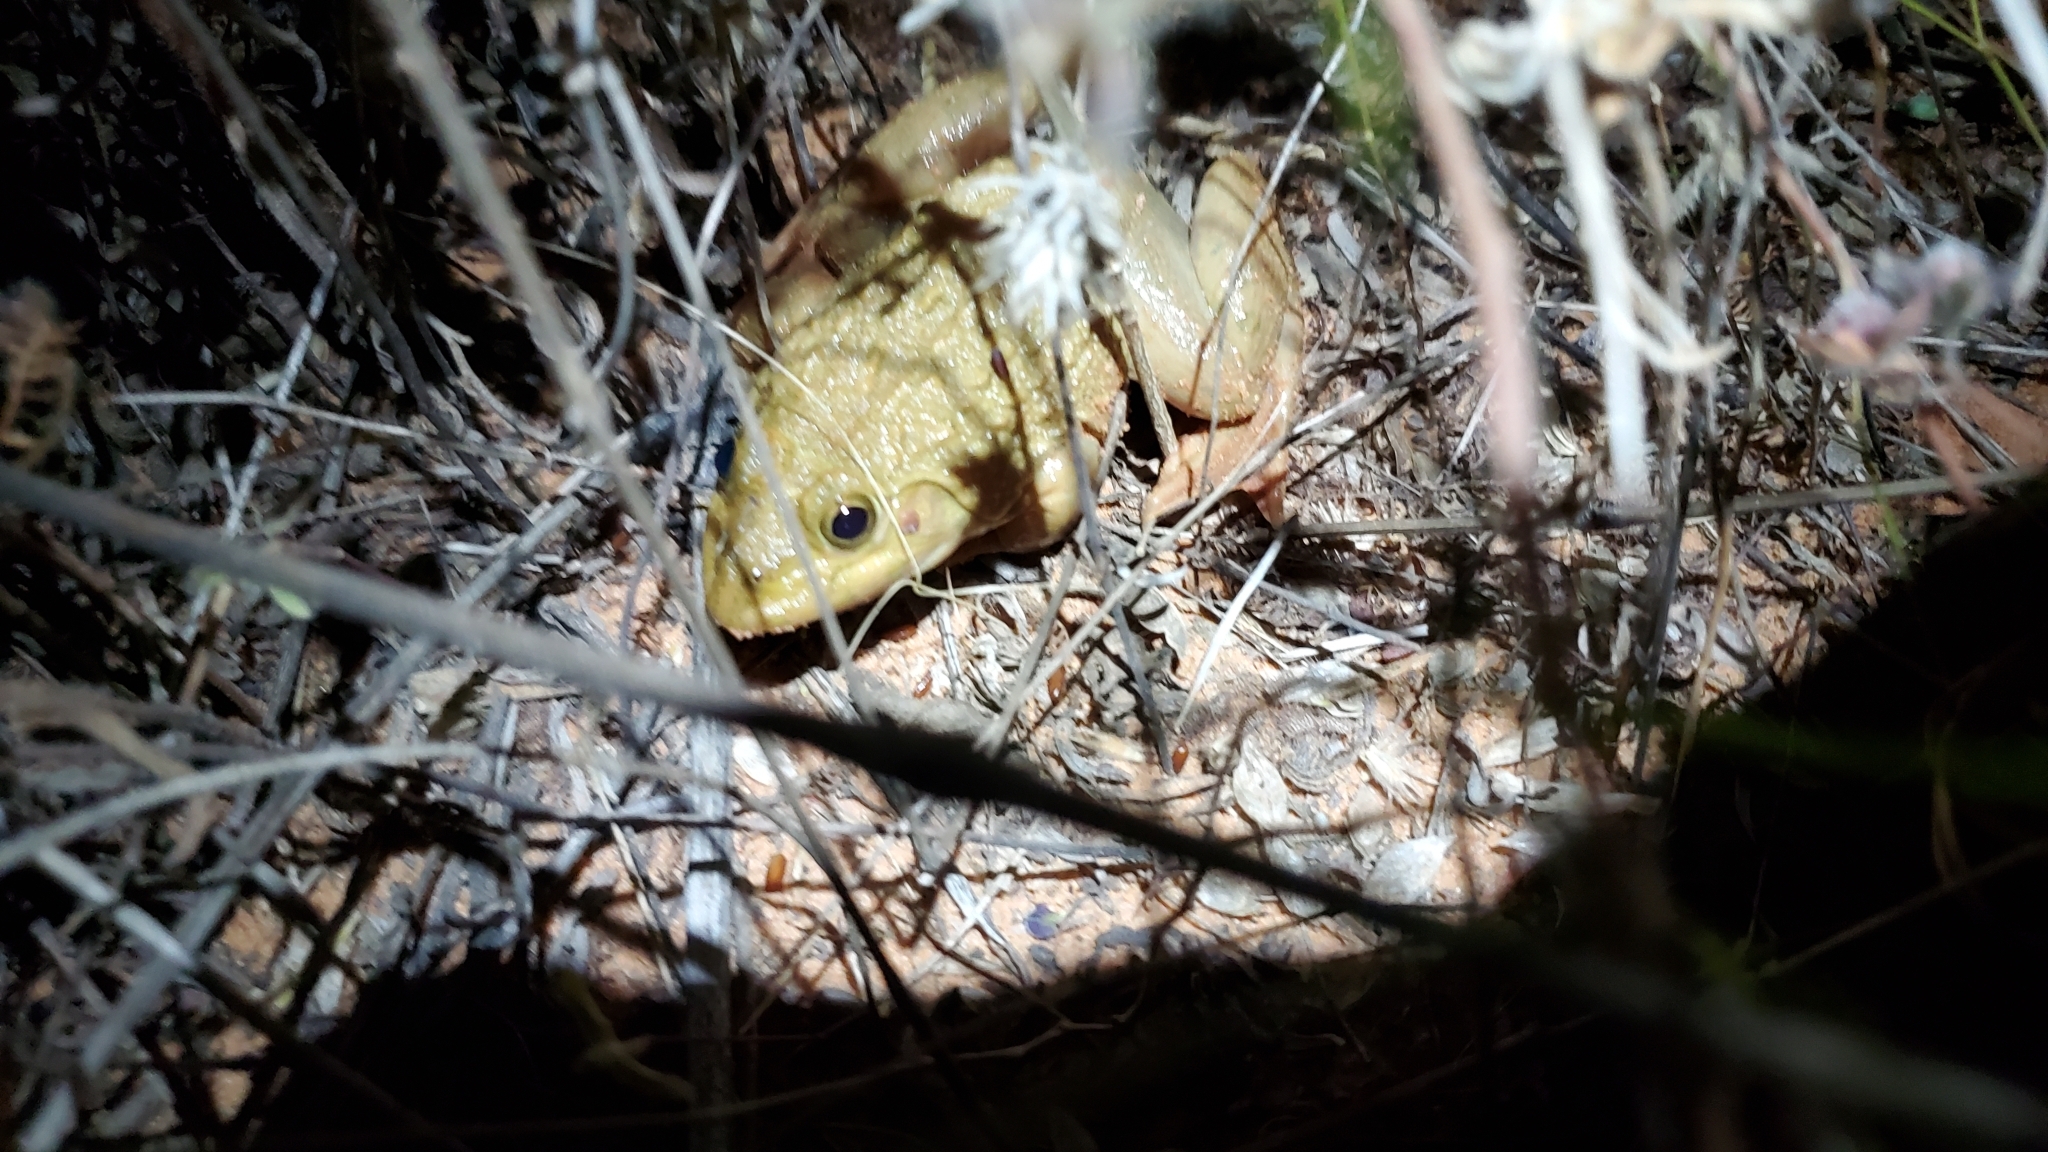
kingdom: Animalia
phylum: Chordata
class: Amphibia
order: Anura
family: Dicroglossidae
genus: Hoplobatrachus
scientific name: Hoplobatrachus occipitalis
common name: Eastern groove-crowned bullfrog
